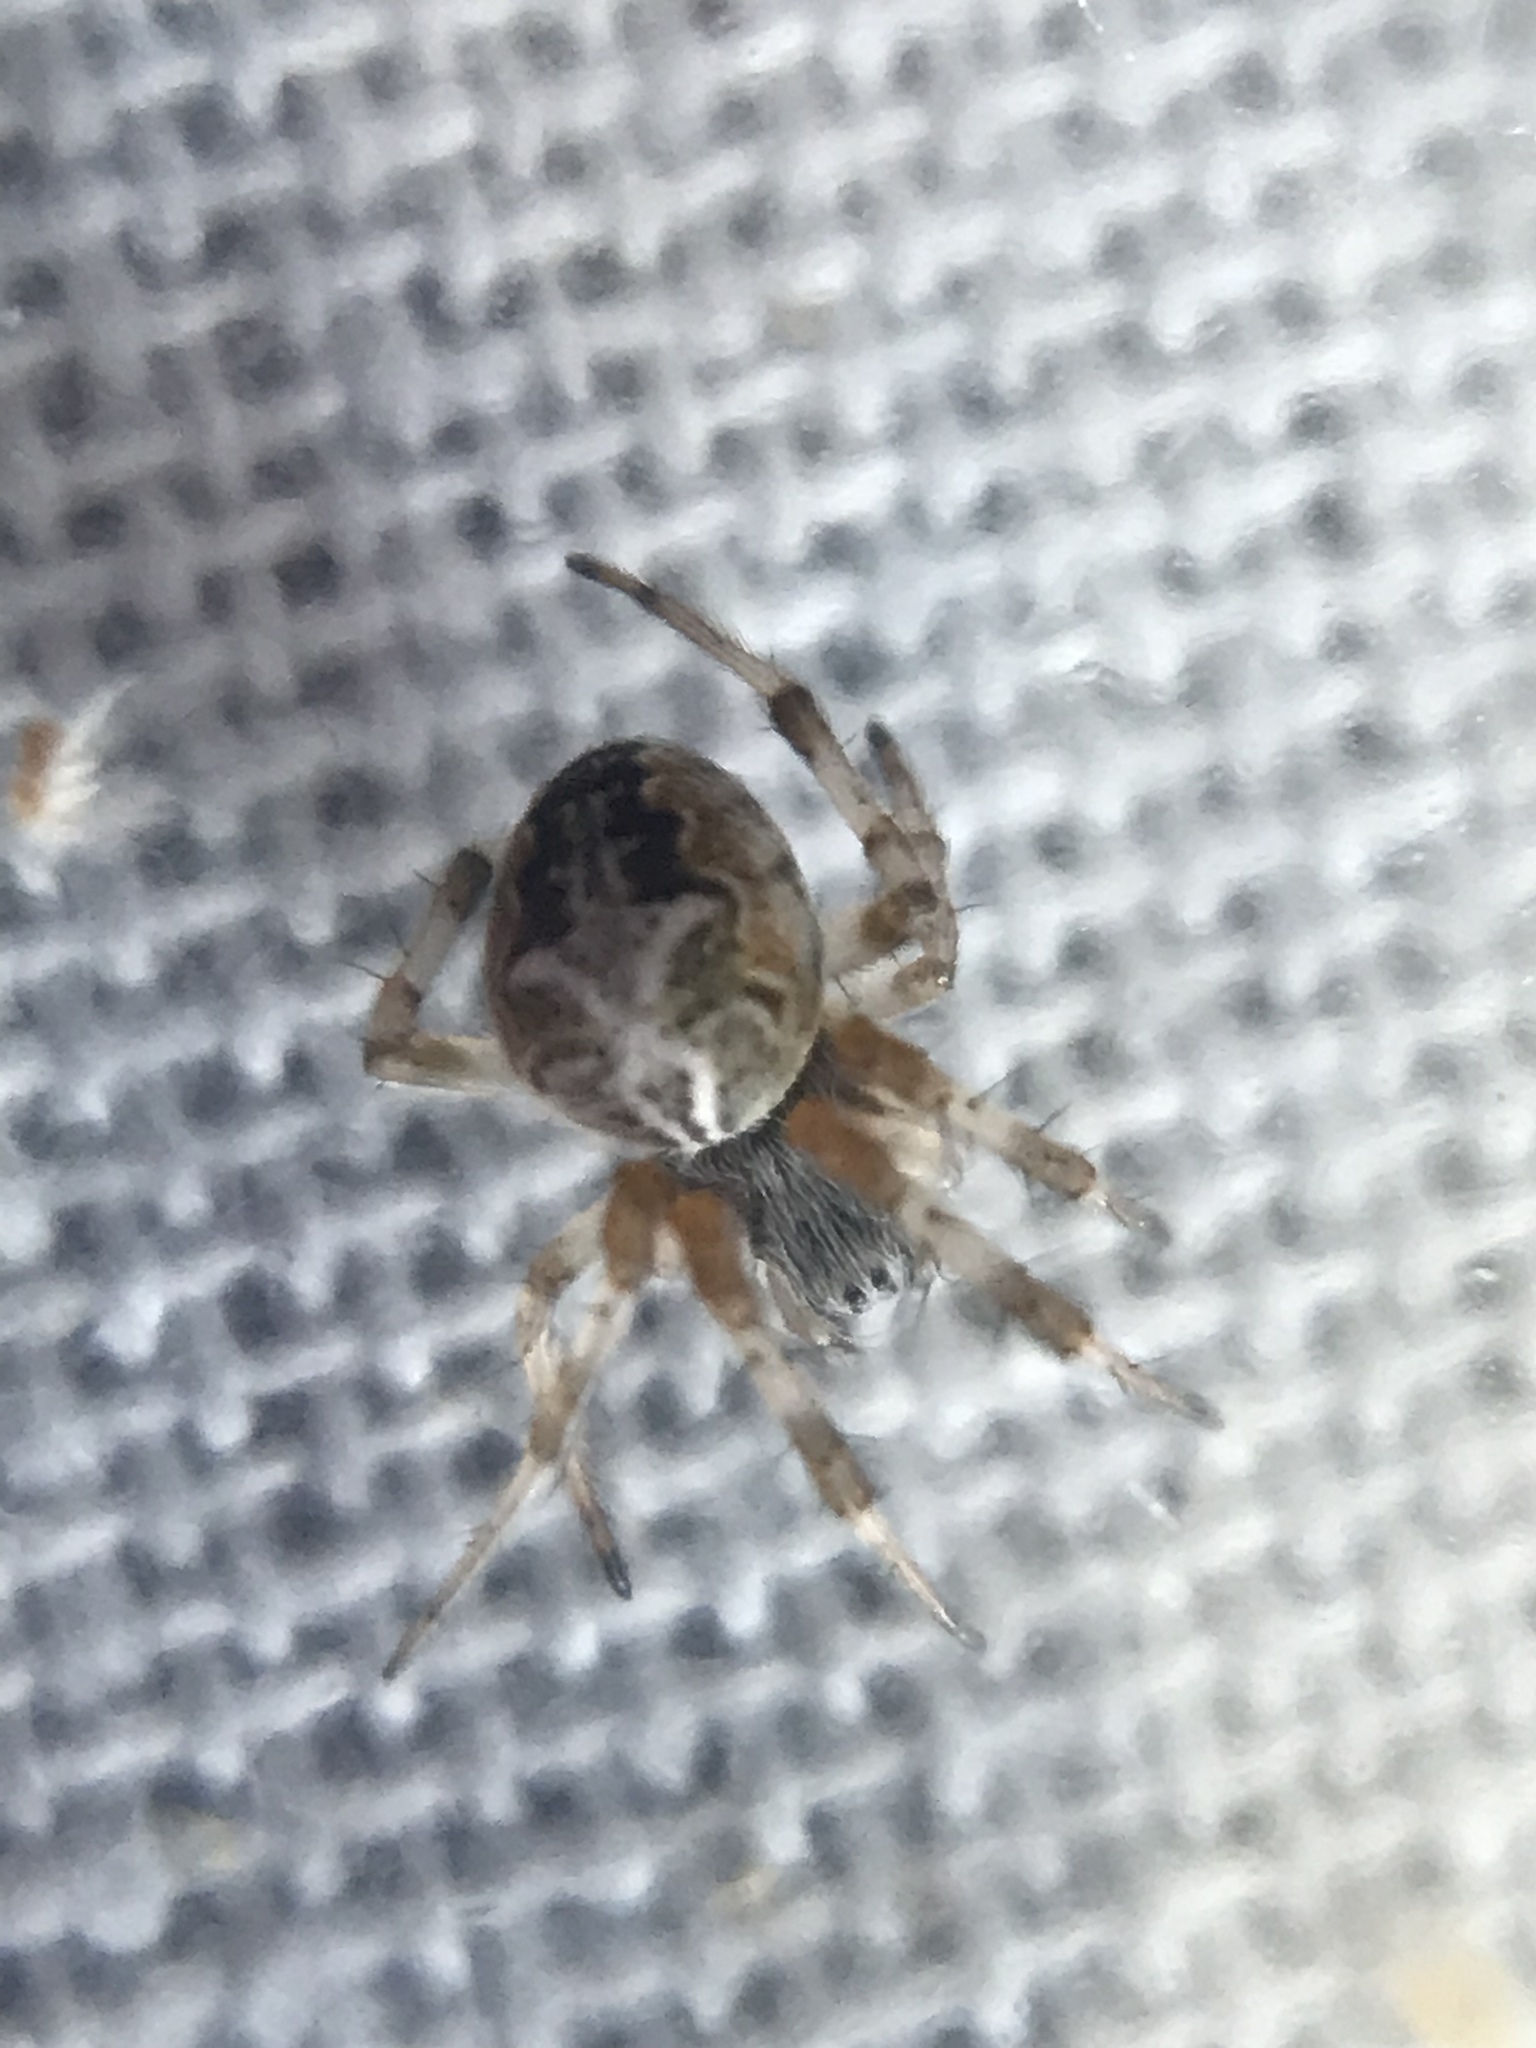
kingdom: Animalia
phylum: Arthropoda
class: Arachnida
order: Araneae
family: Araneidae
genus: Metepeira
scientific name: Metepeira labyrinthea
